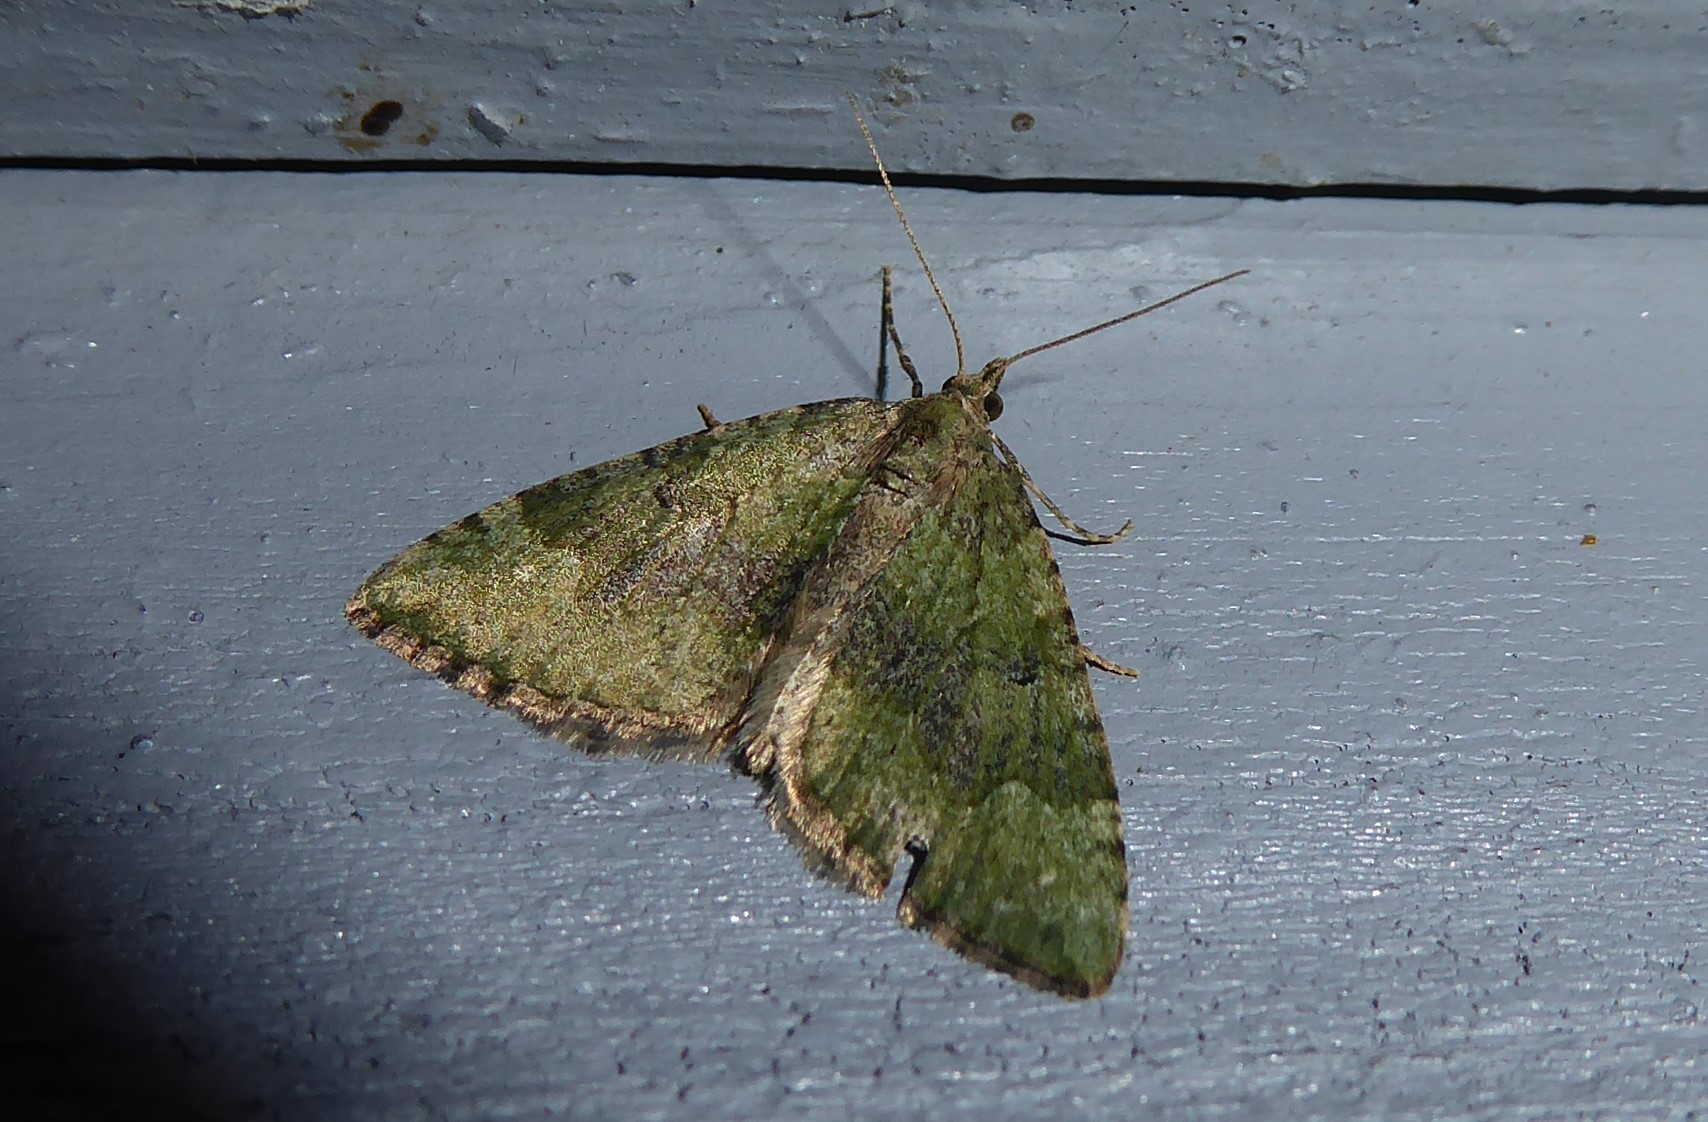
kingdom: Animalia
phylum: Arthropoda
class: Insecta
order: Lepidoptera
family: Geometridae
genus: Epyaxa
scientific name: Epyaxa rosearia
